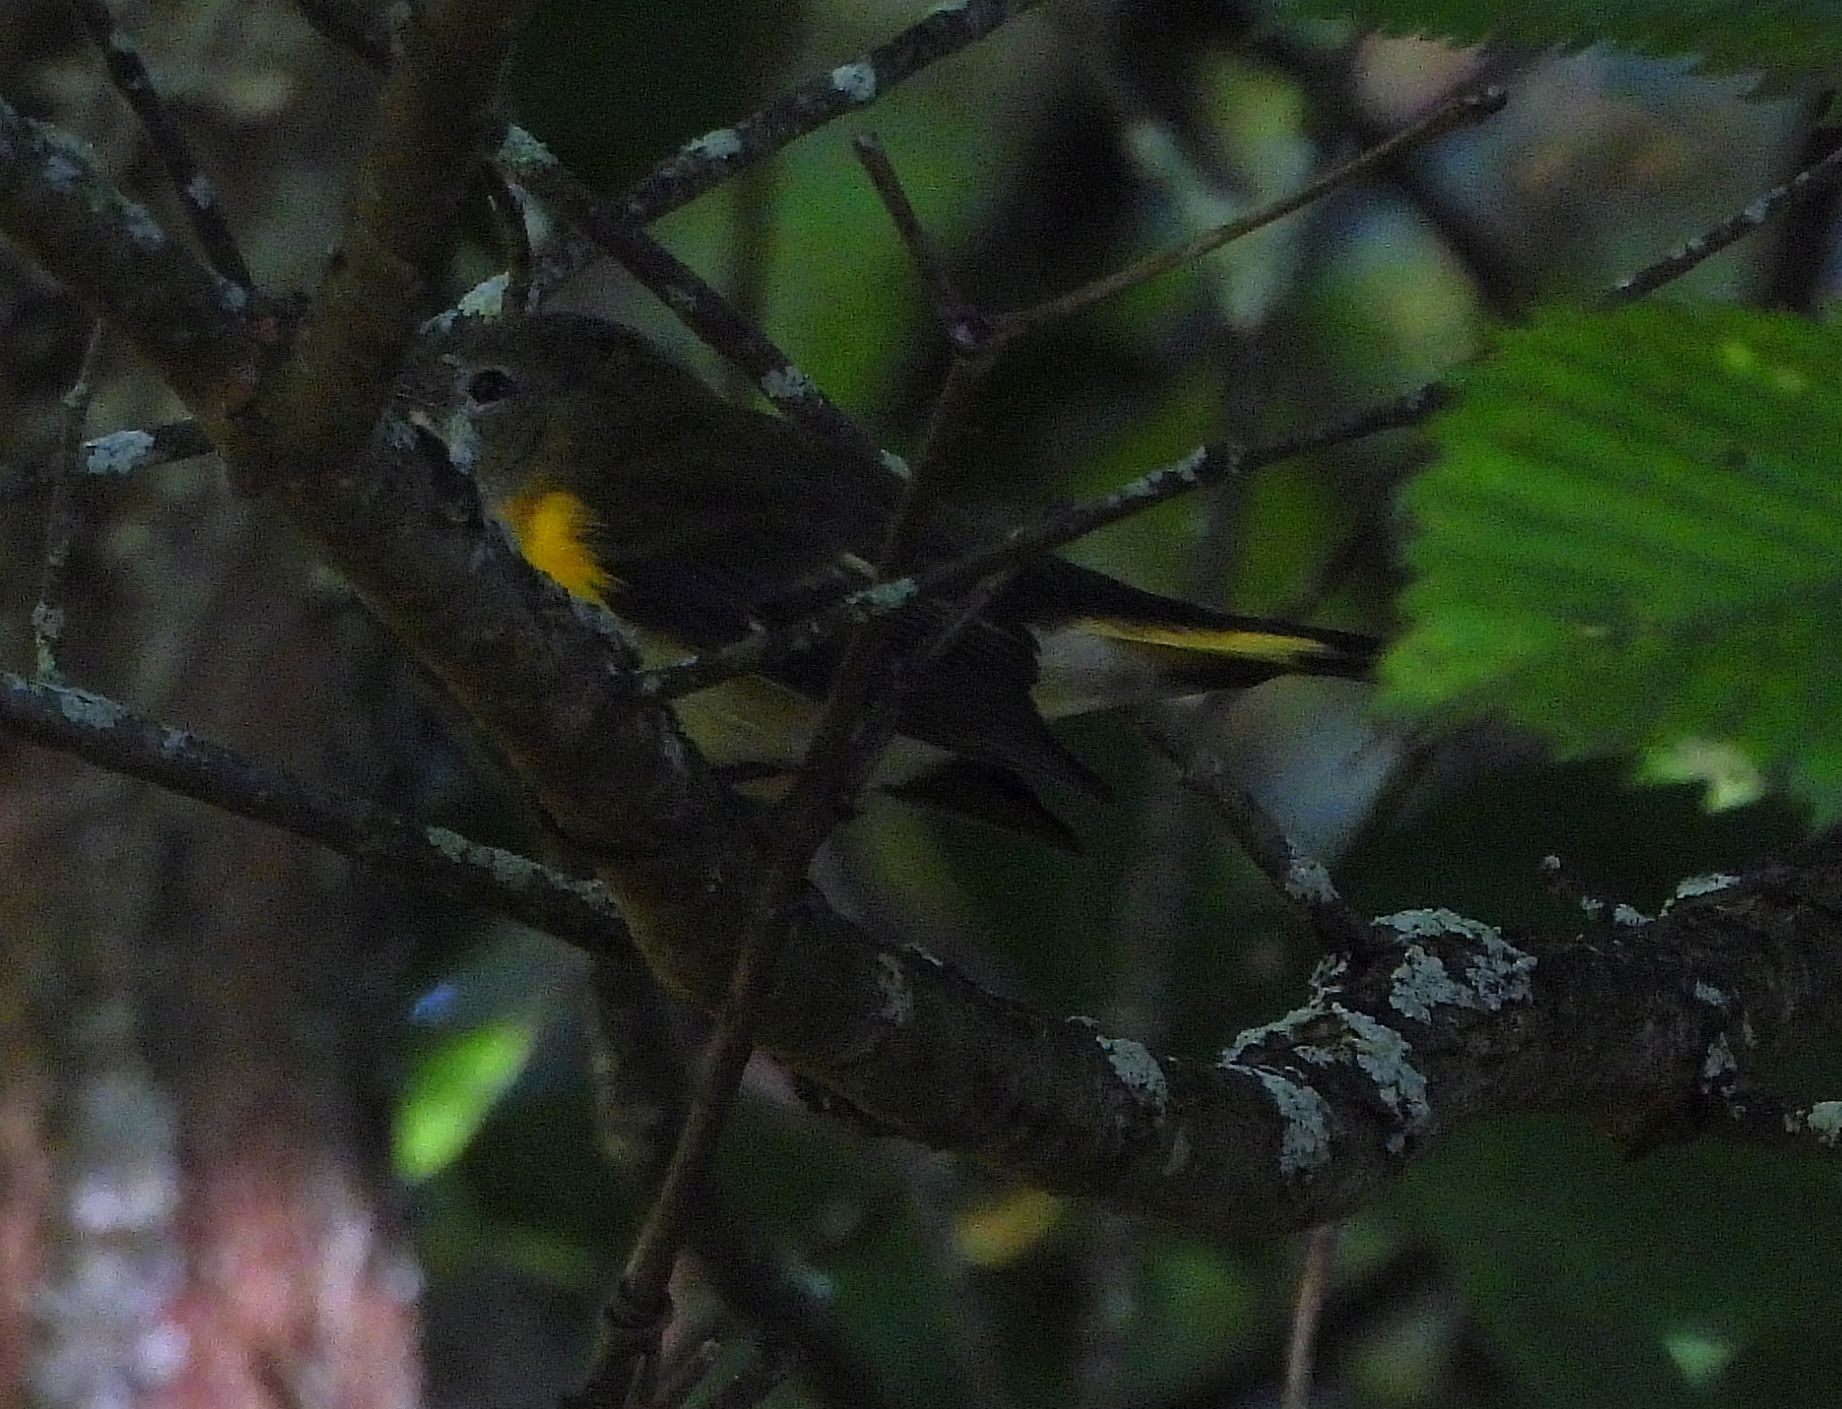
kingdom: Animalia
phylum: Chordata
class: Aves
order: Passeriformes
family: Parulidae
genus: Setophaga
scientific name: Setophaga ruticilla
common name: American redstart
